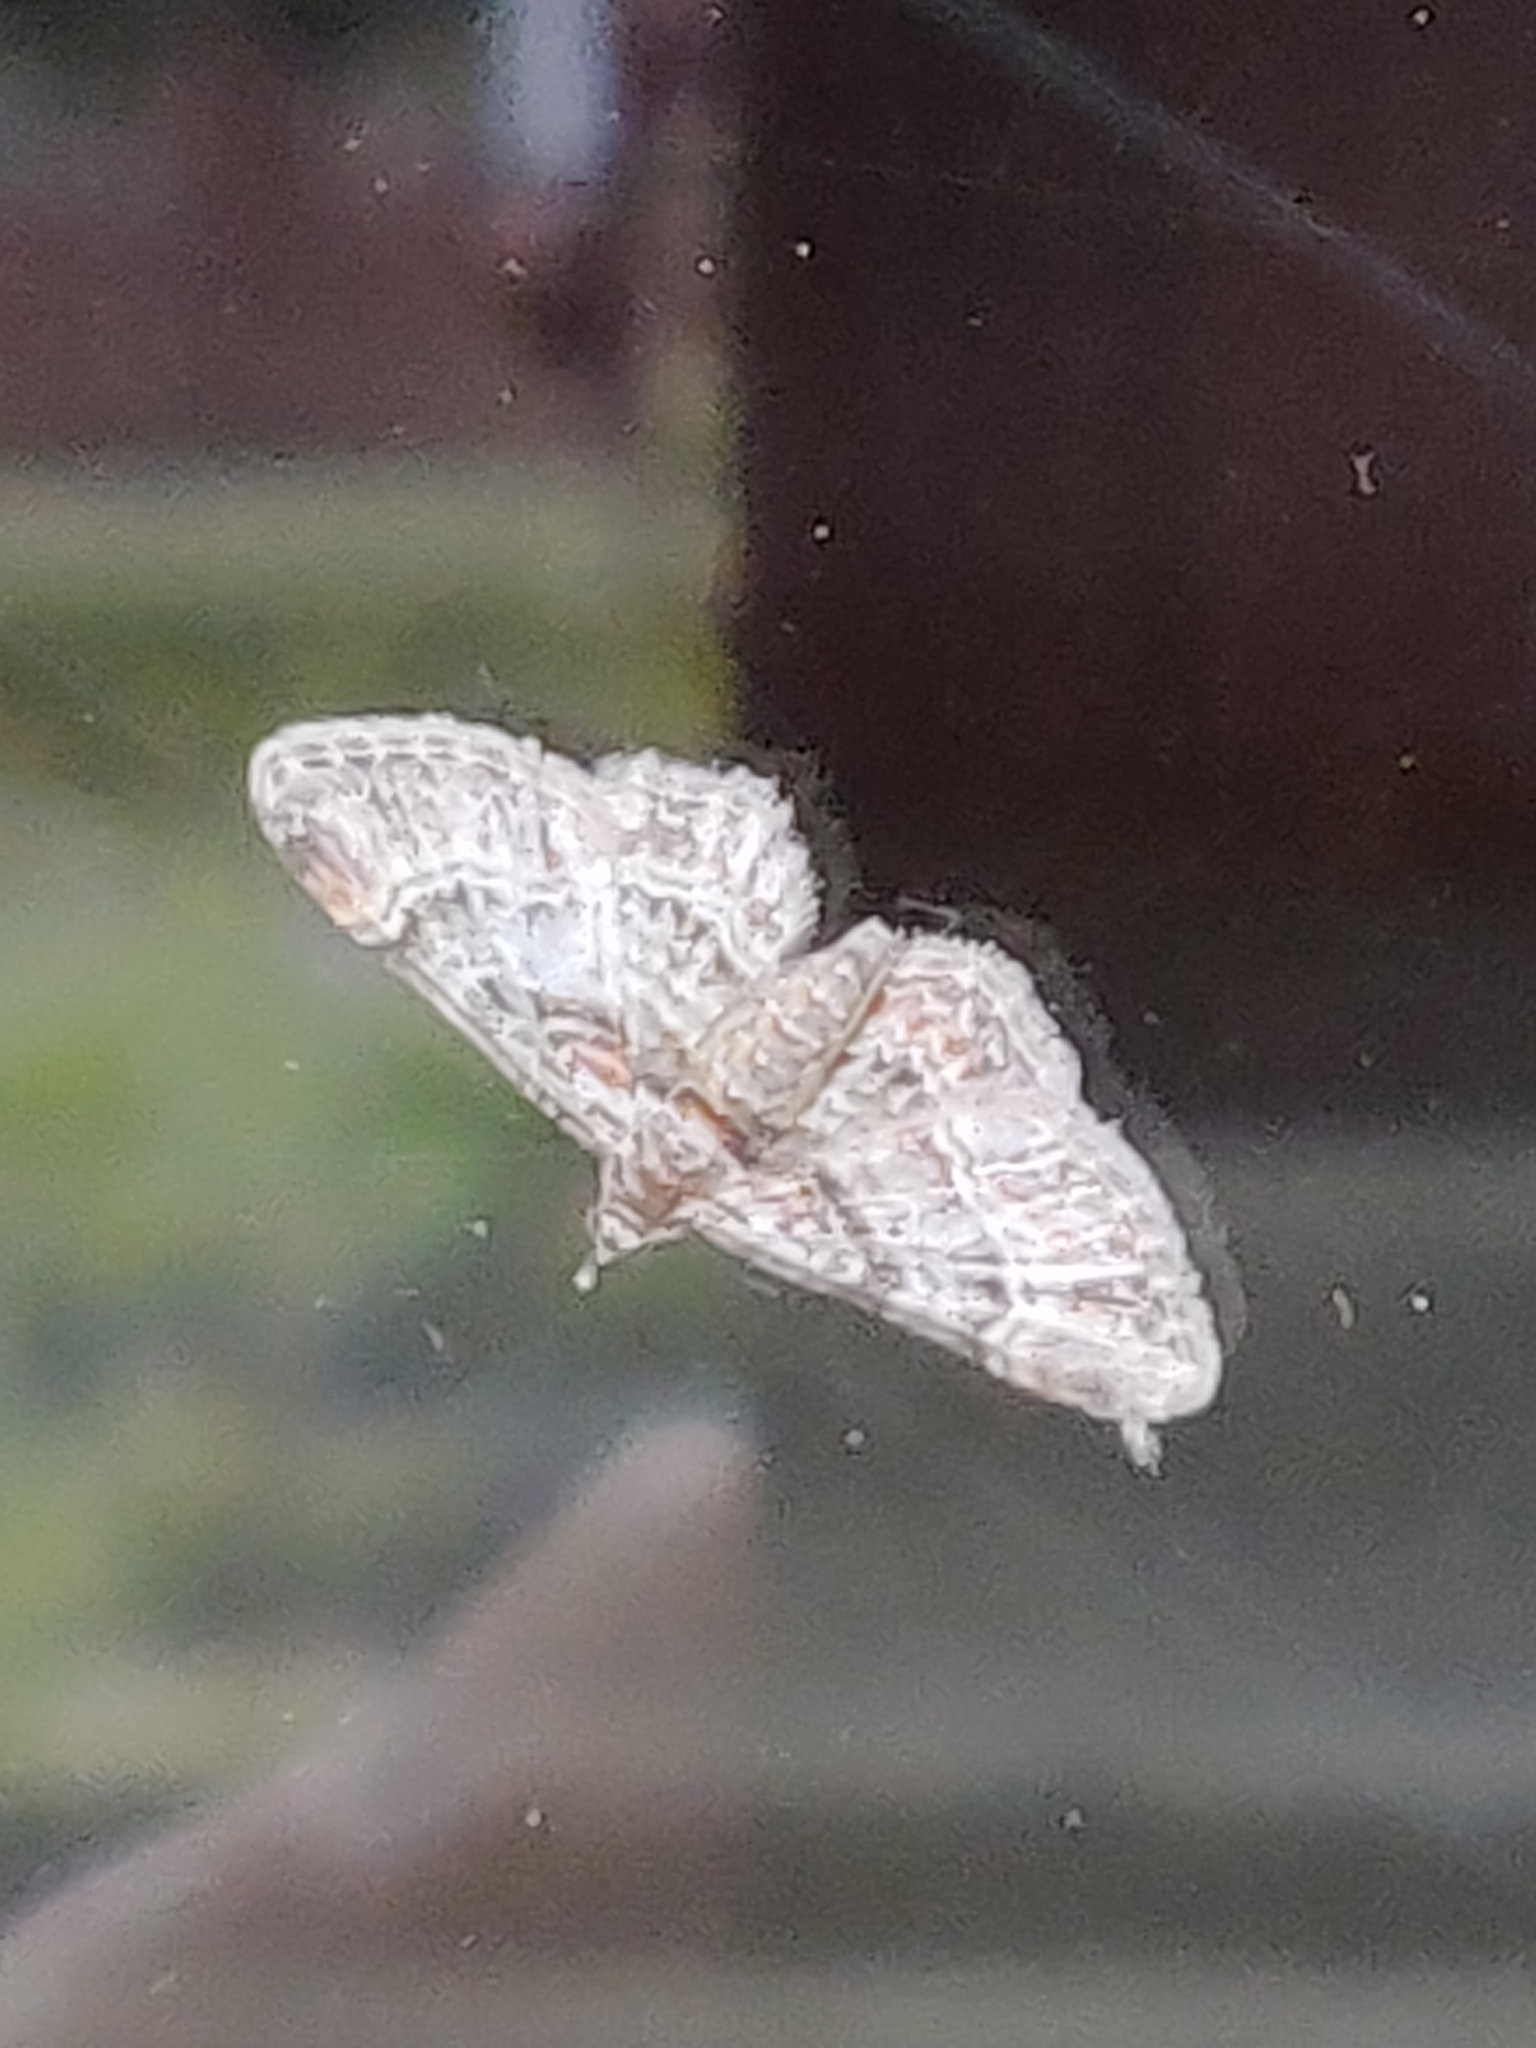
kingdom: Animalia
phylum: Arthropoda
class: Insecta
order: Lepidoptera
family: Geometridae
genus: Gymnoscelis
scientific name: Gymnoscelis rufifasciata
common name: Double-striped pug
